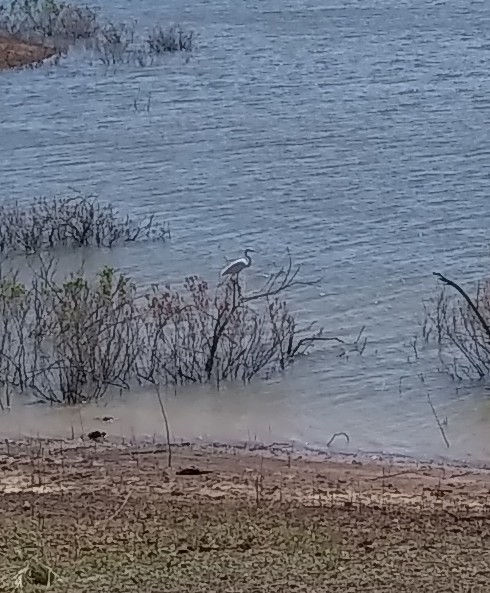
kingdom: Animalia
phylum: Chordata
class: Aves
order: Pelecaniformes
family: Ardeidae
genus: Ardea
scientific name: Ardea alba
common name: Great egret
